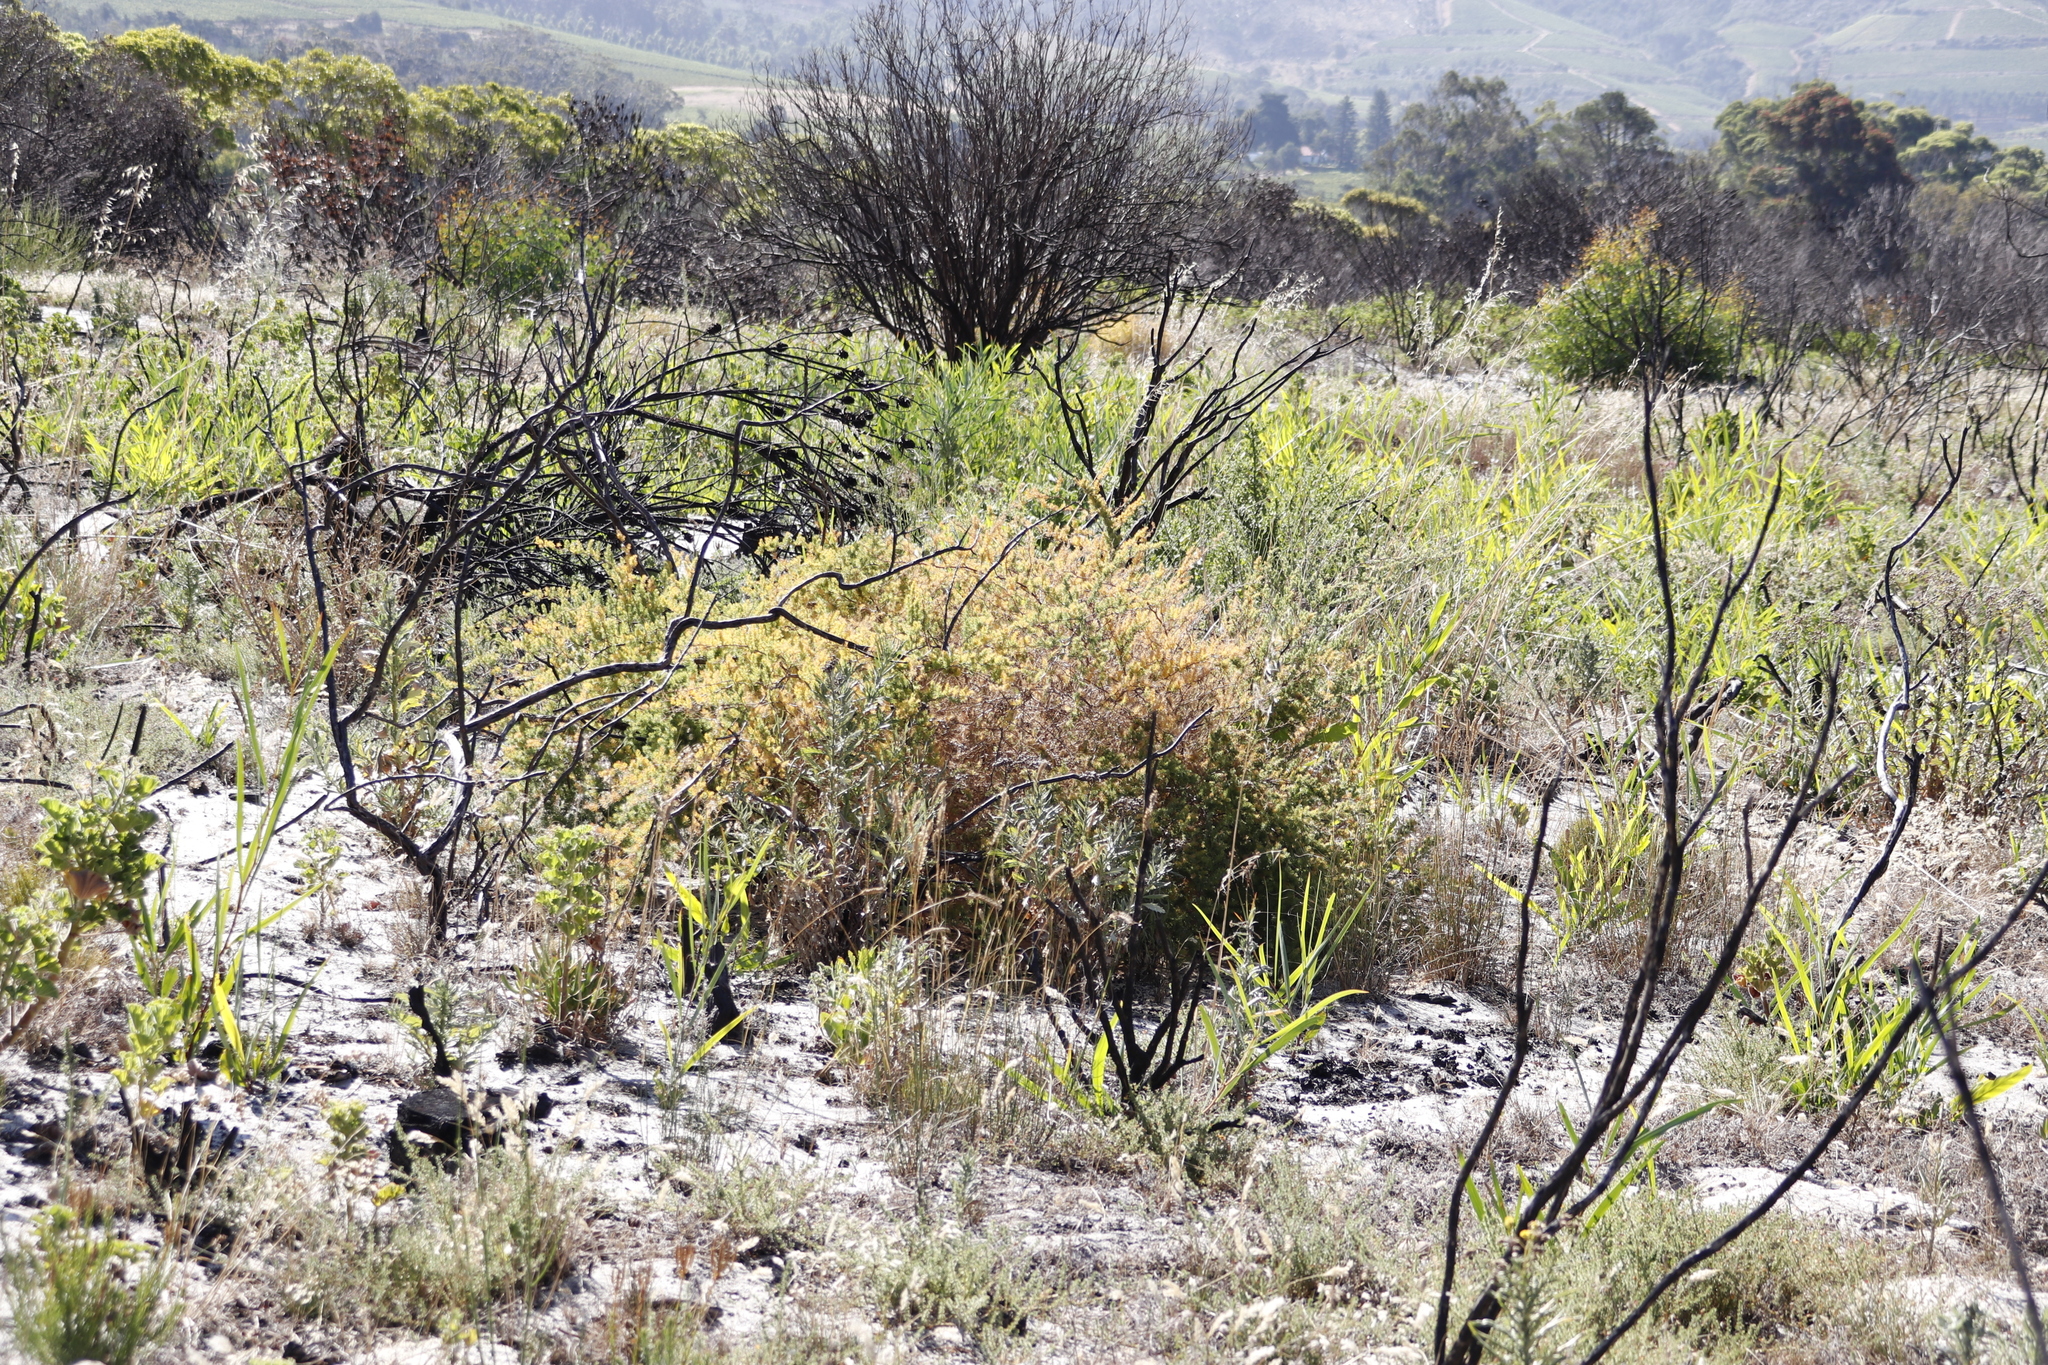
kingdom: Plantae
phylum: Tracheophyta
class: Liliopsida
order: Asparagales
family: Asparagaceae
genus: Asparagus
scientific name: Asparagus rubicundus
